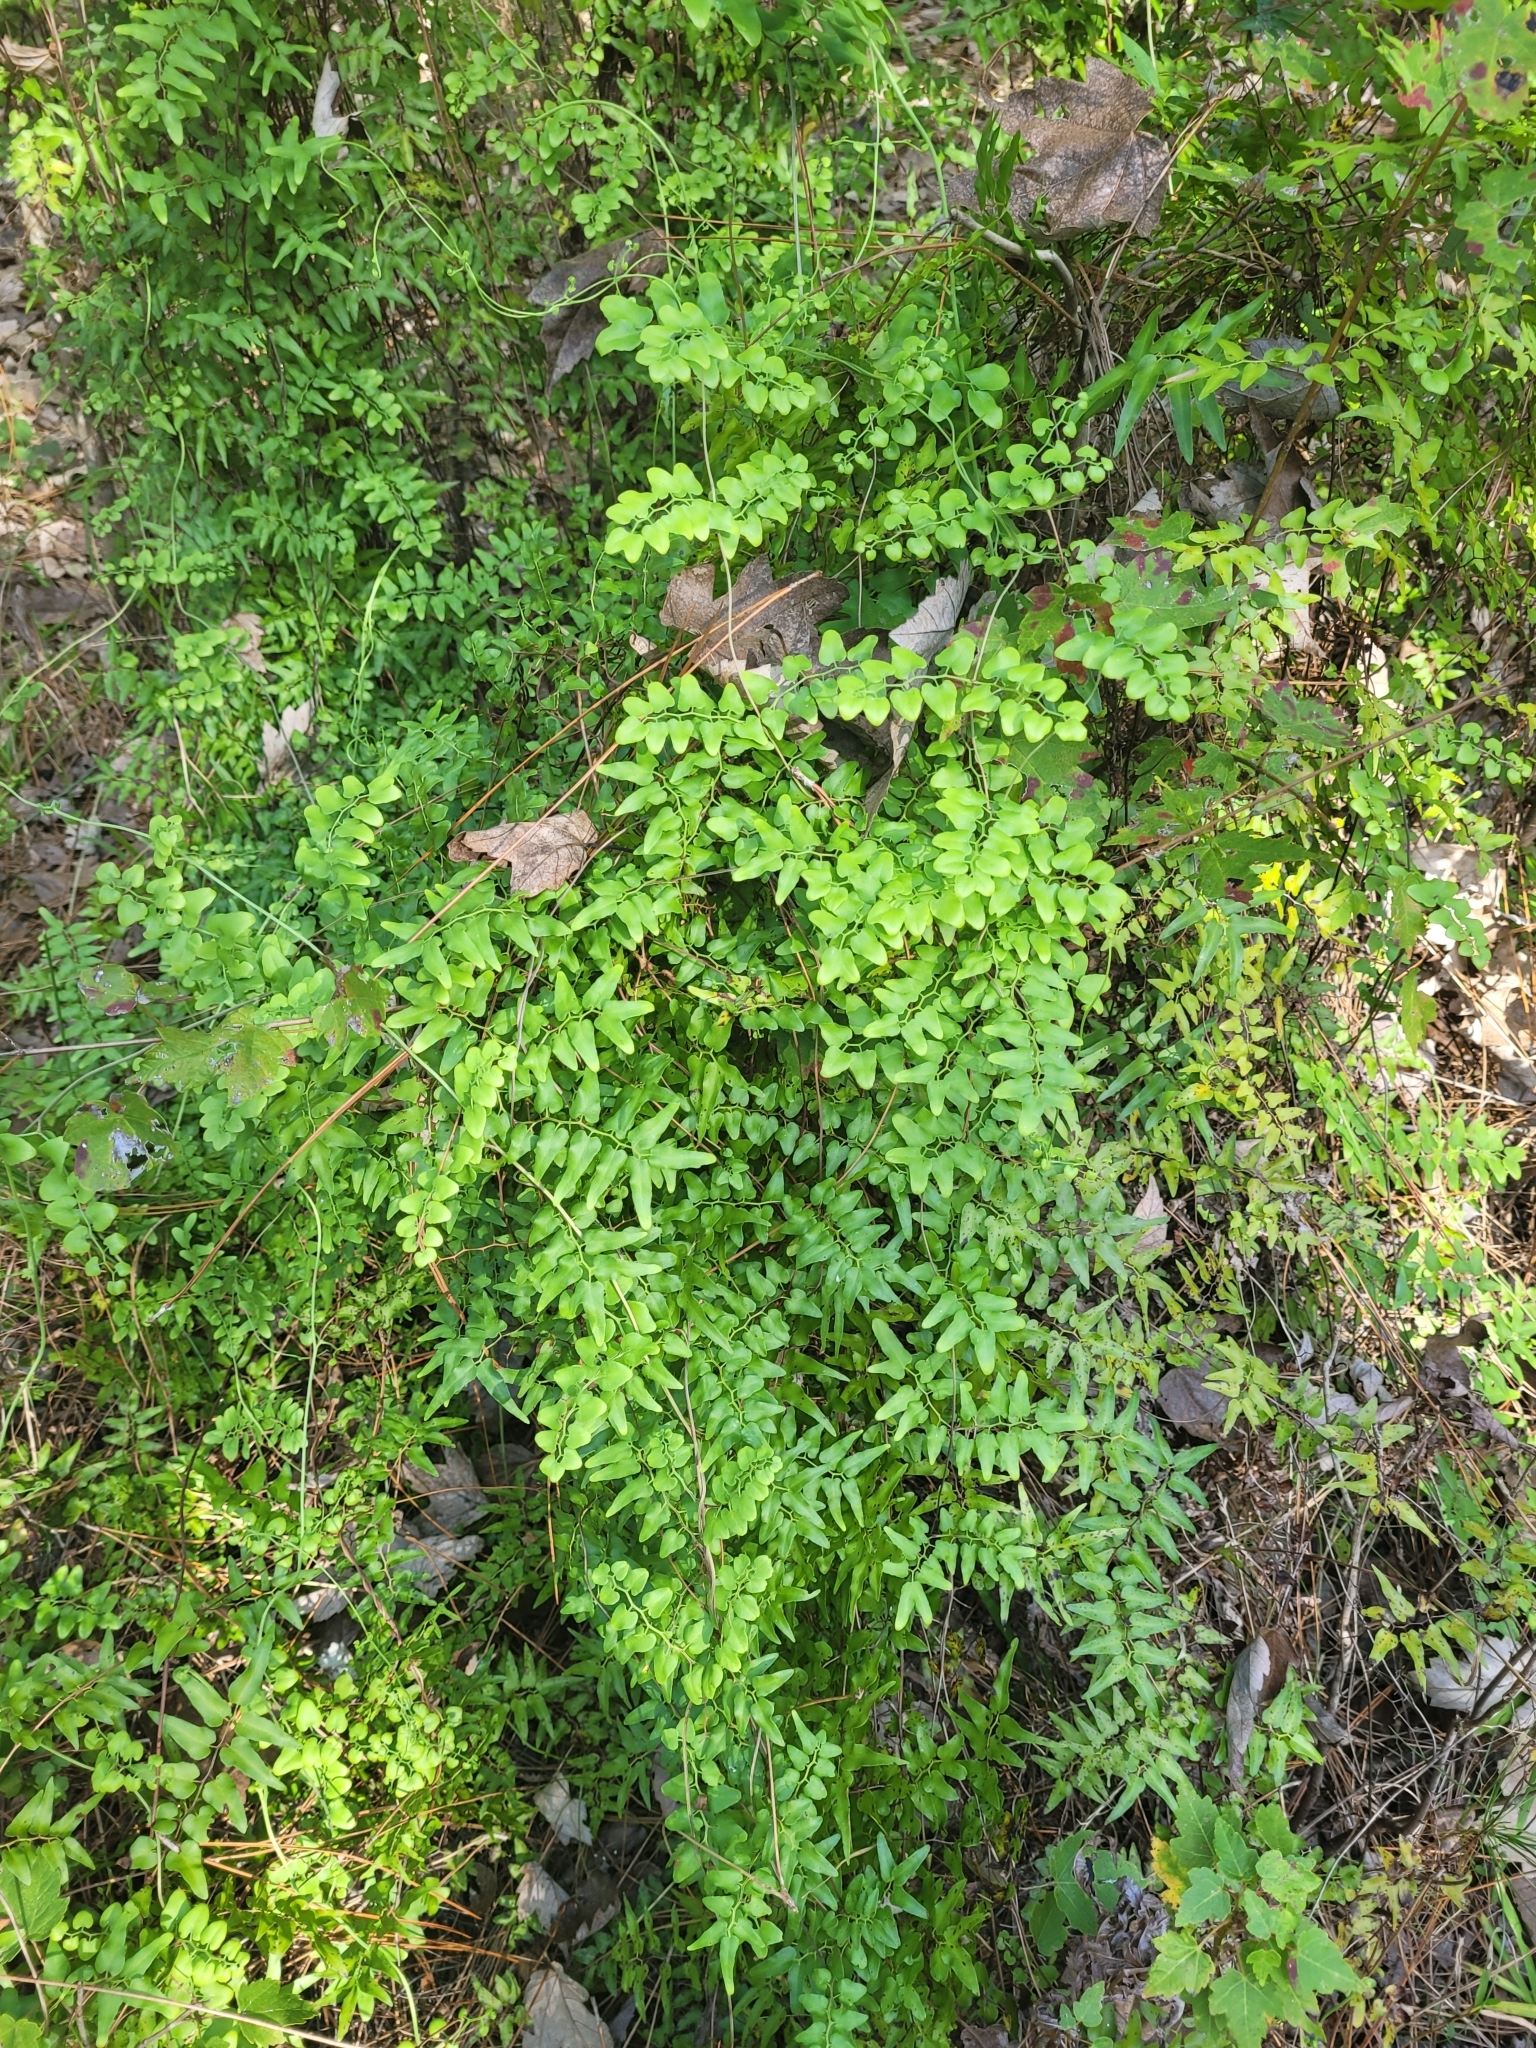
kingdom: Plantae
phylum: Tracheophyta
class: Polypodiopsida
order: Schizaeales
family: Lygodiaceae
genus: Lygodium
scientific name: Lygodium microphyllum
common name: Small-leaf climbing fern
